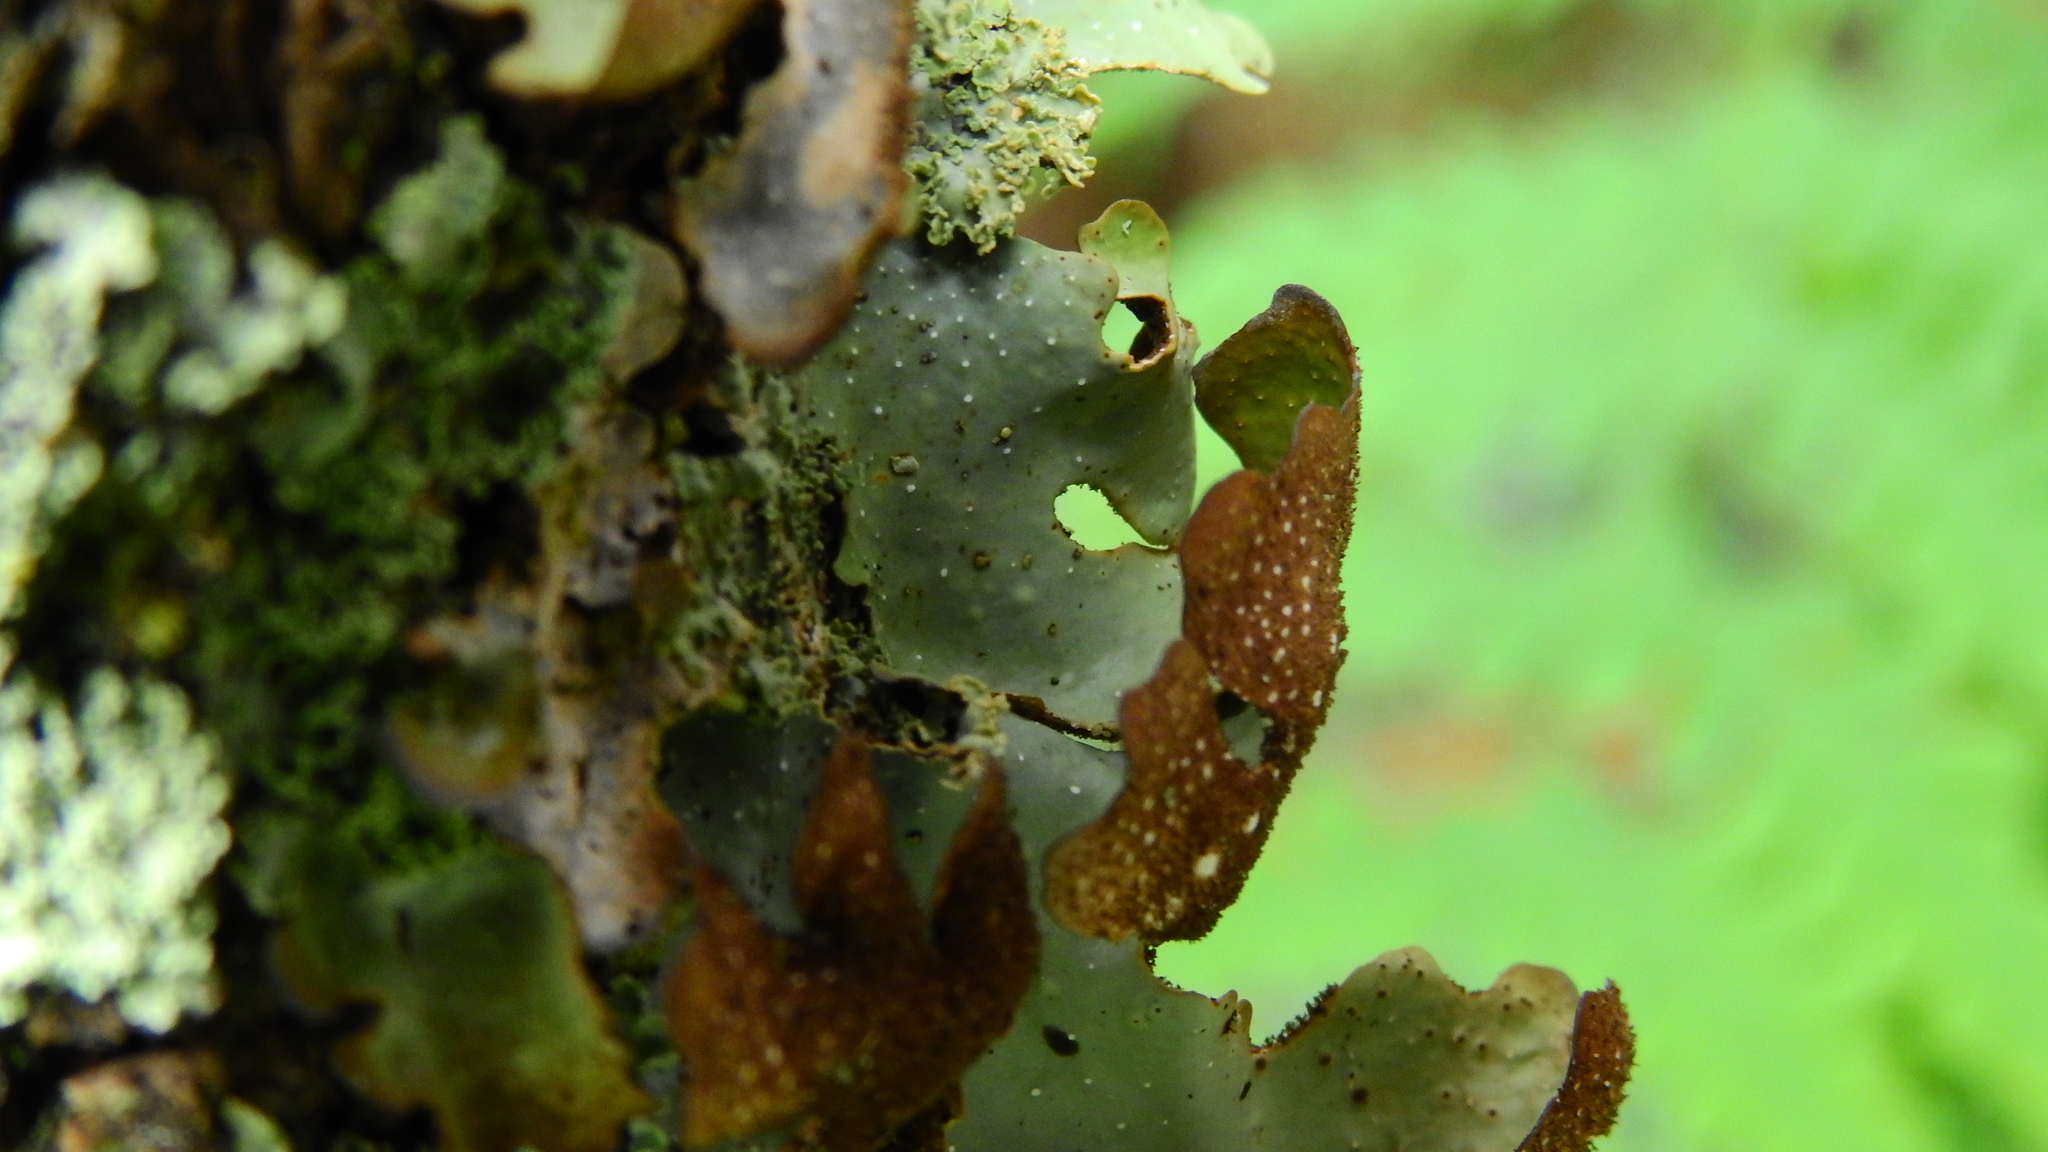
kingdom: Fungi
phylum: Ascomycota
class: Lecanoromycetes
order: Peltigerales
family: Lobariaceae
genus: Pseudocyphellaria
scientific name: Pseudocyphellaria lividofusca
